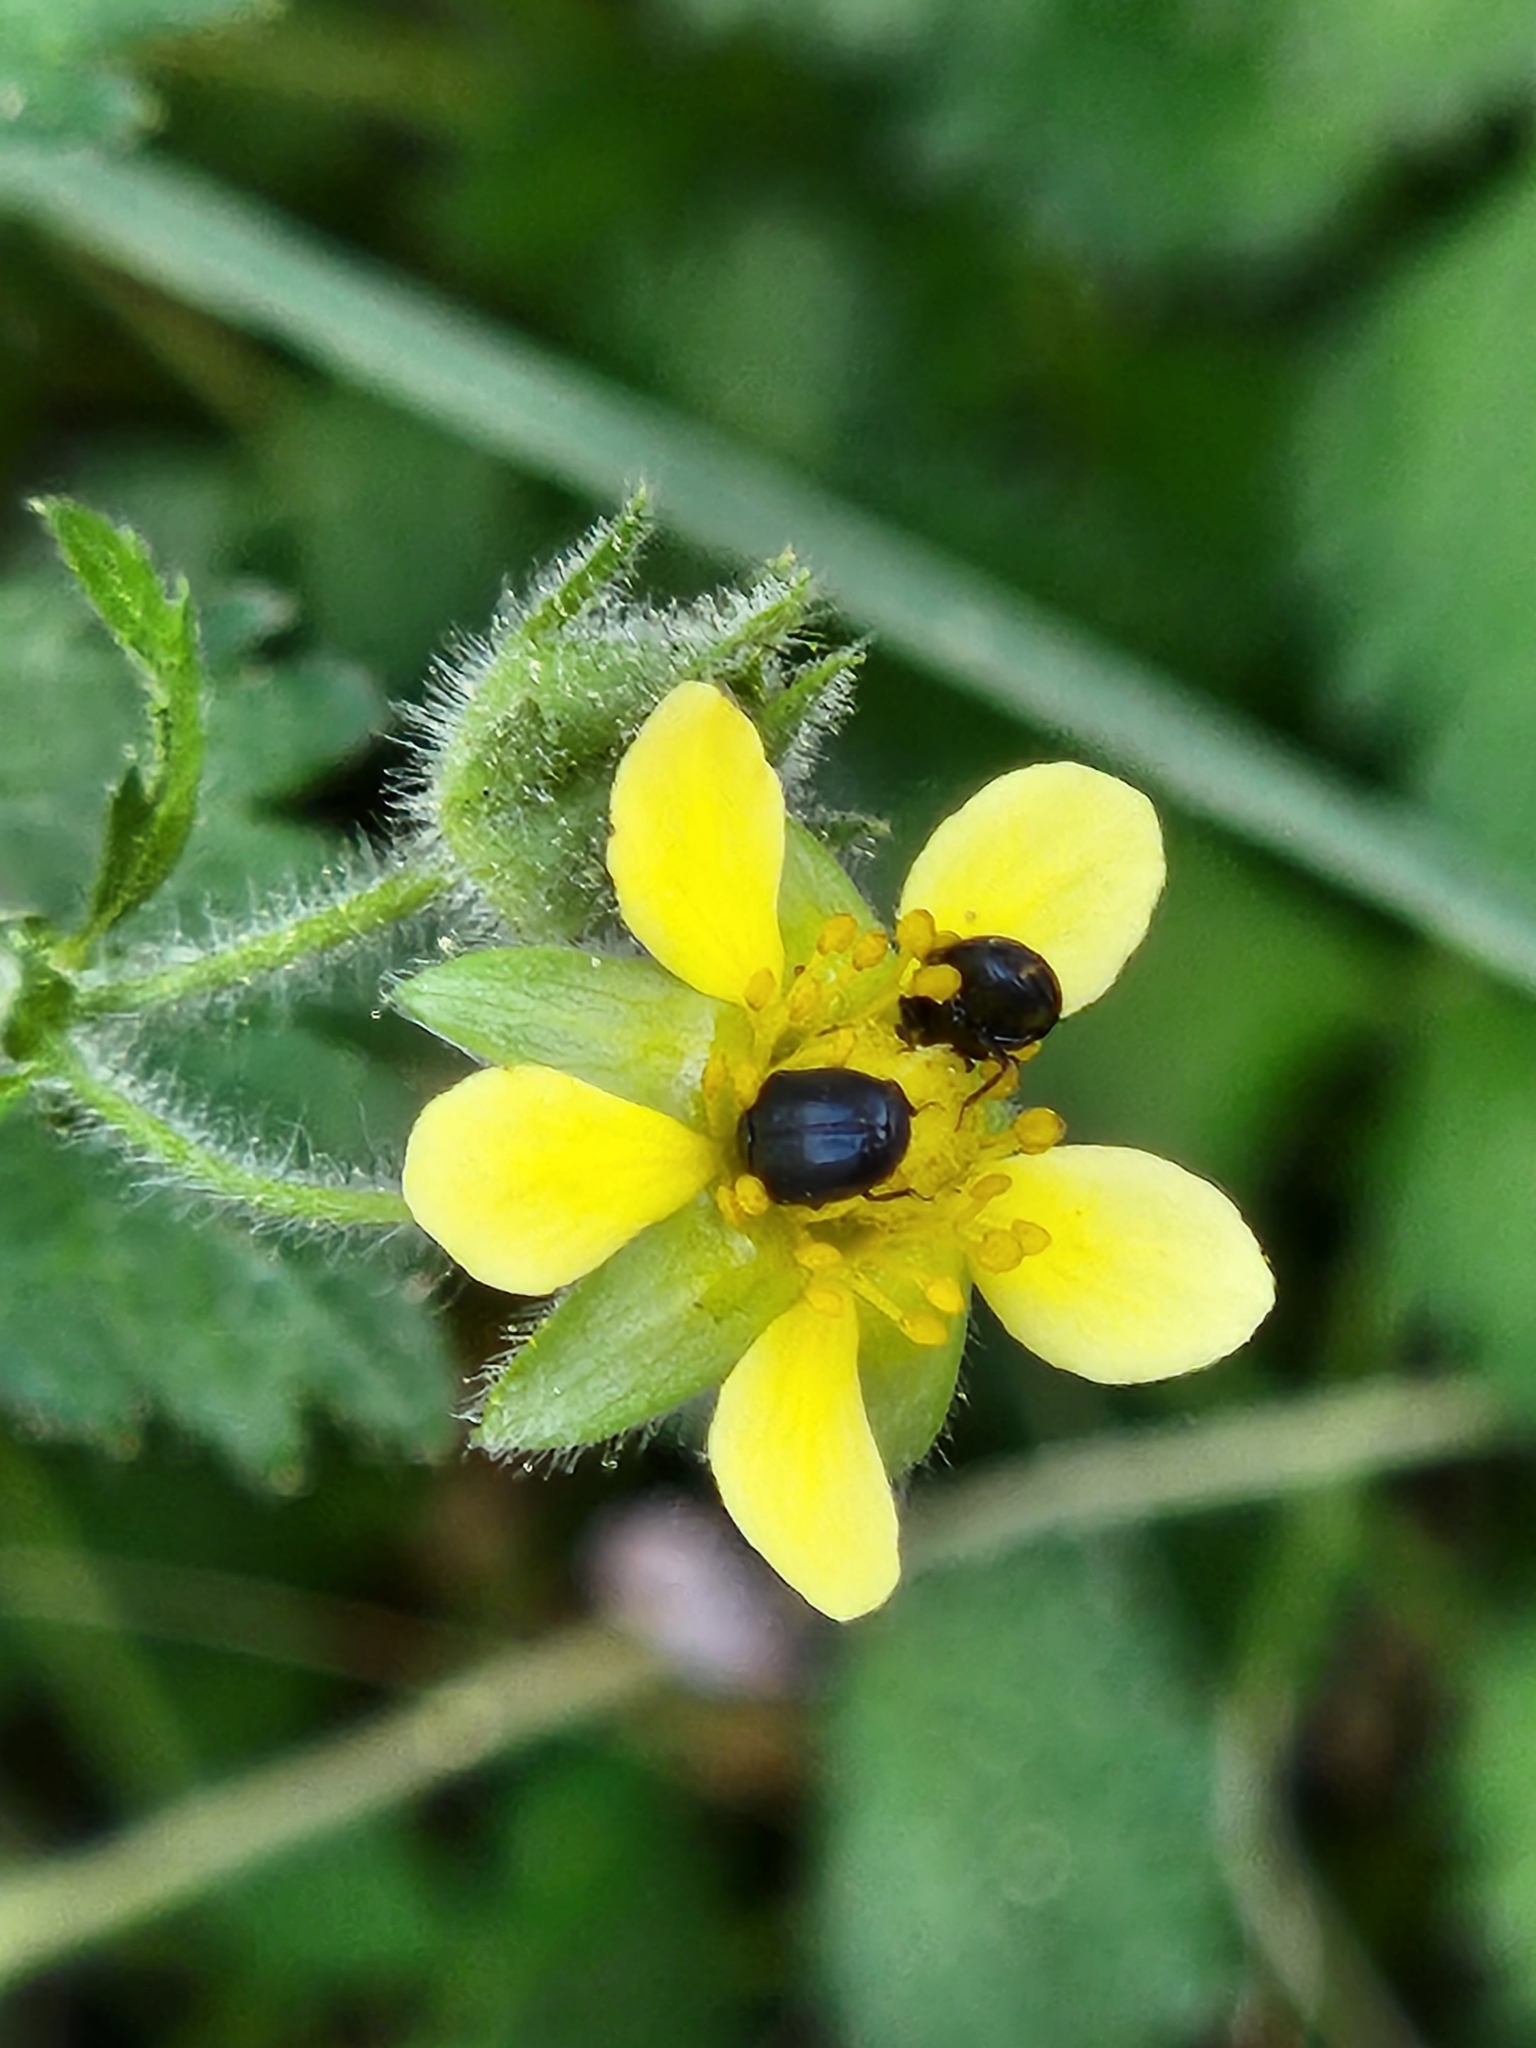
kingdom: Plantae
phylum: Tracheophyta
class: Magnoliopsida
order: Rosales
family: Rosaceae
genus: Drymocallis
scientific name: Drymocallis glandulosa
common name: Sticky cinquefoil
